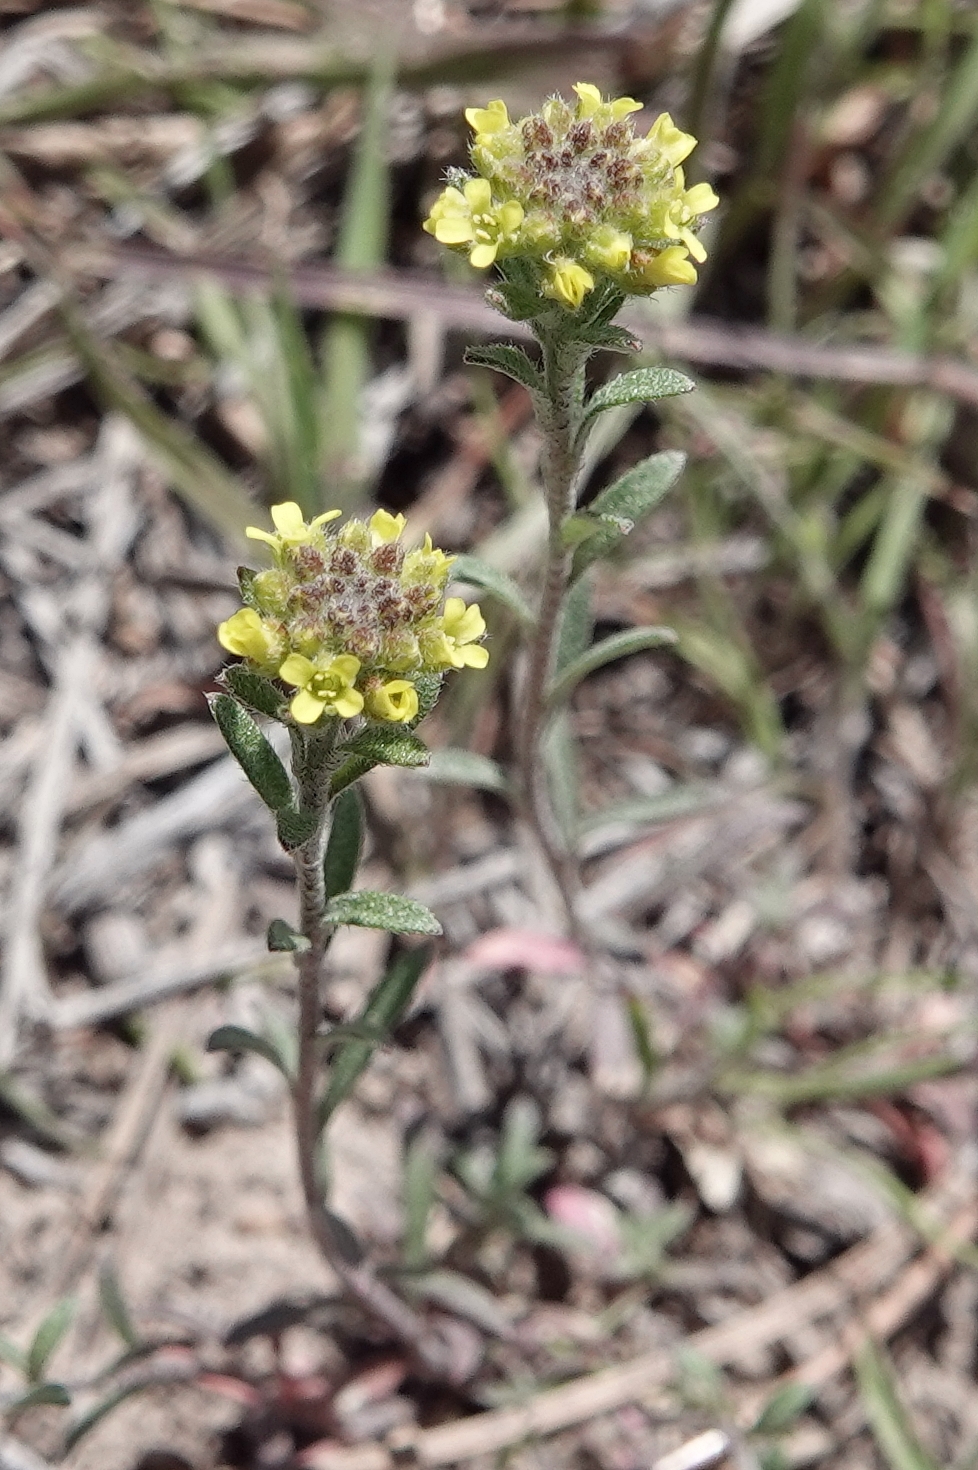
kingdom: Plantae
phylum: Tracheophyta
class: Magnoliopsida
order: Brassicales
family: Brassicaceae
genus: Alyssum
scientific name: Alyssum turkestanicum
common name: Desert alyssum
